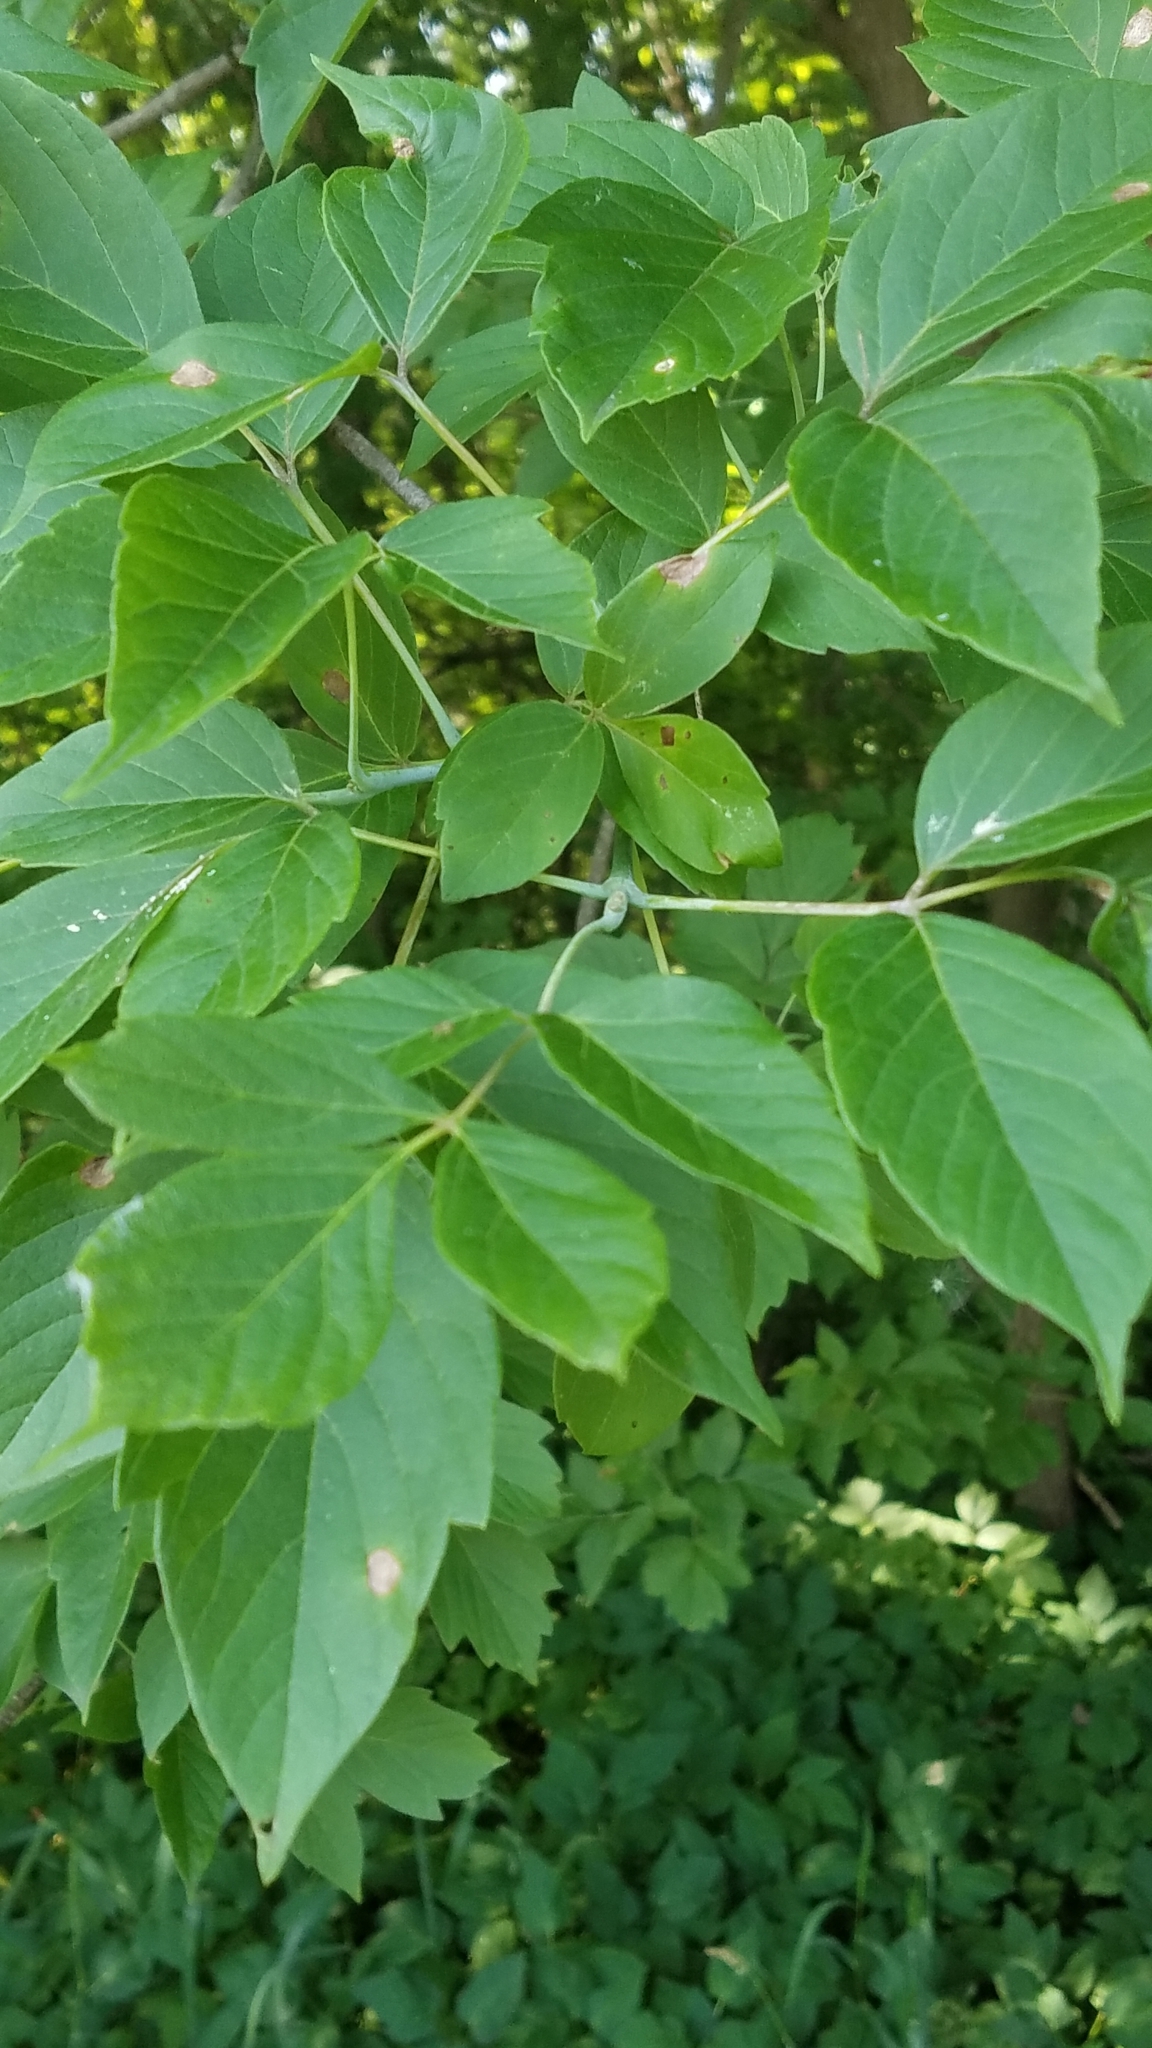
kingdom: Plantae
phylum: Tracheophyta
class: Magnoliopsida
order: Sapindales
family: Sapindaceae
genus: Acer
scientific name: Acer negundo
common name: Ashleaf maple
